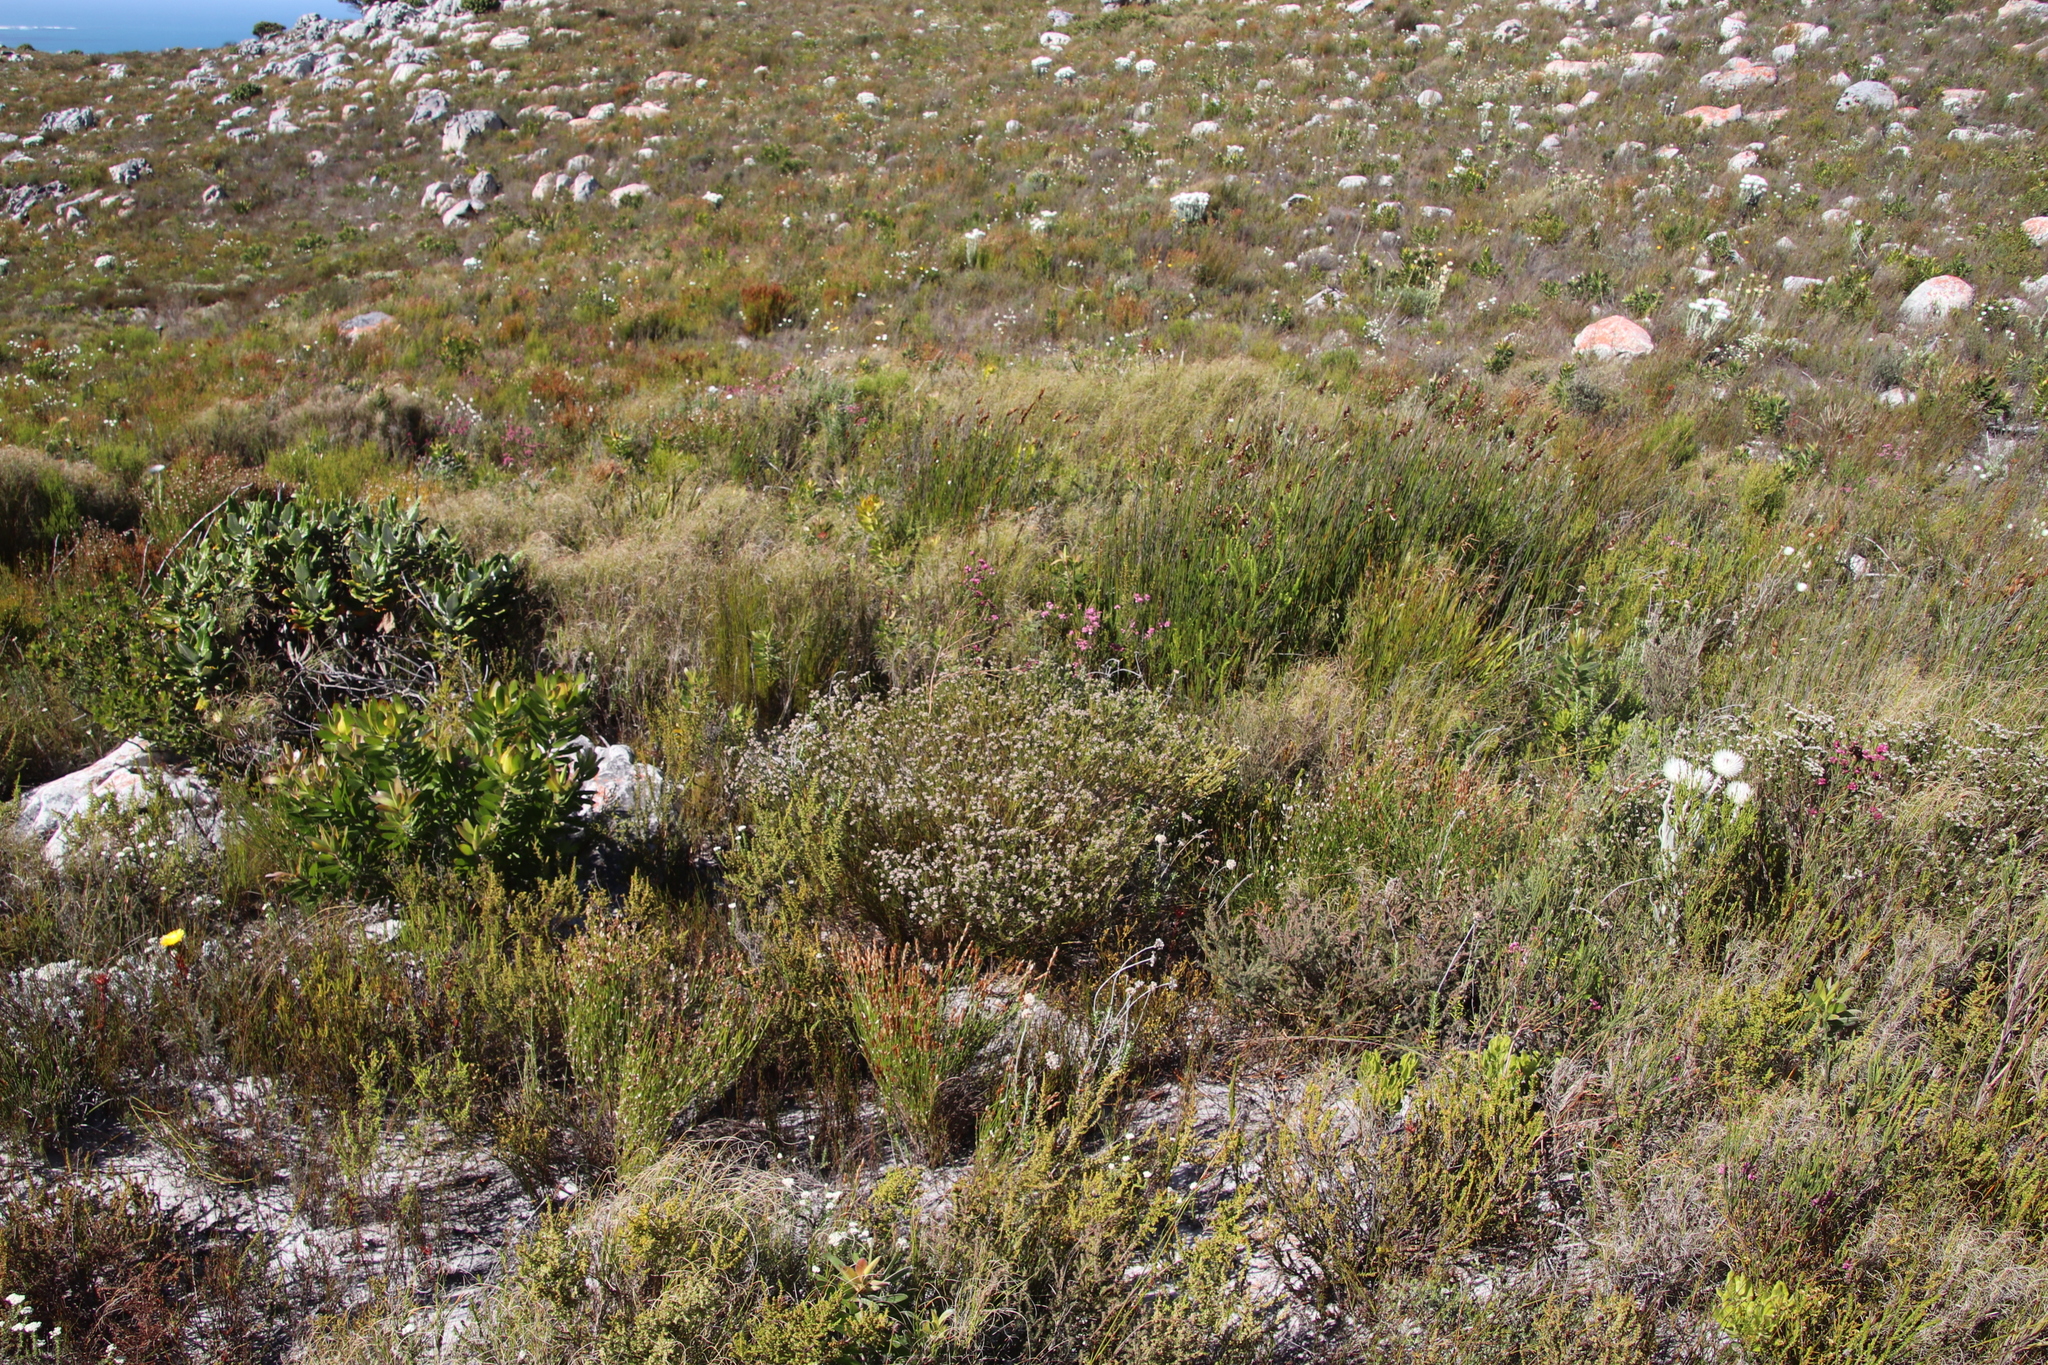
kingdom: Plantae
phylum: Tracheophyta
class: Magnoliopsida
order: Bruniales
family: Bruniaceae
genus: Staavia
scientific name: Staavia radiata
